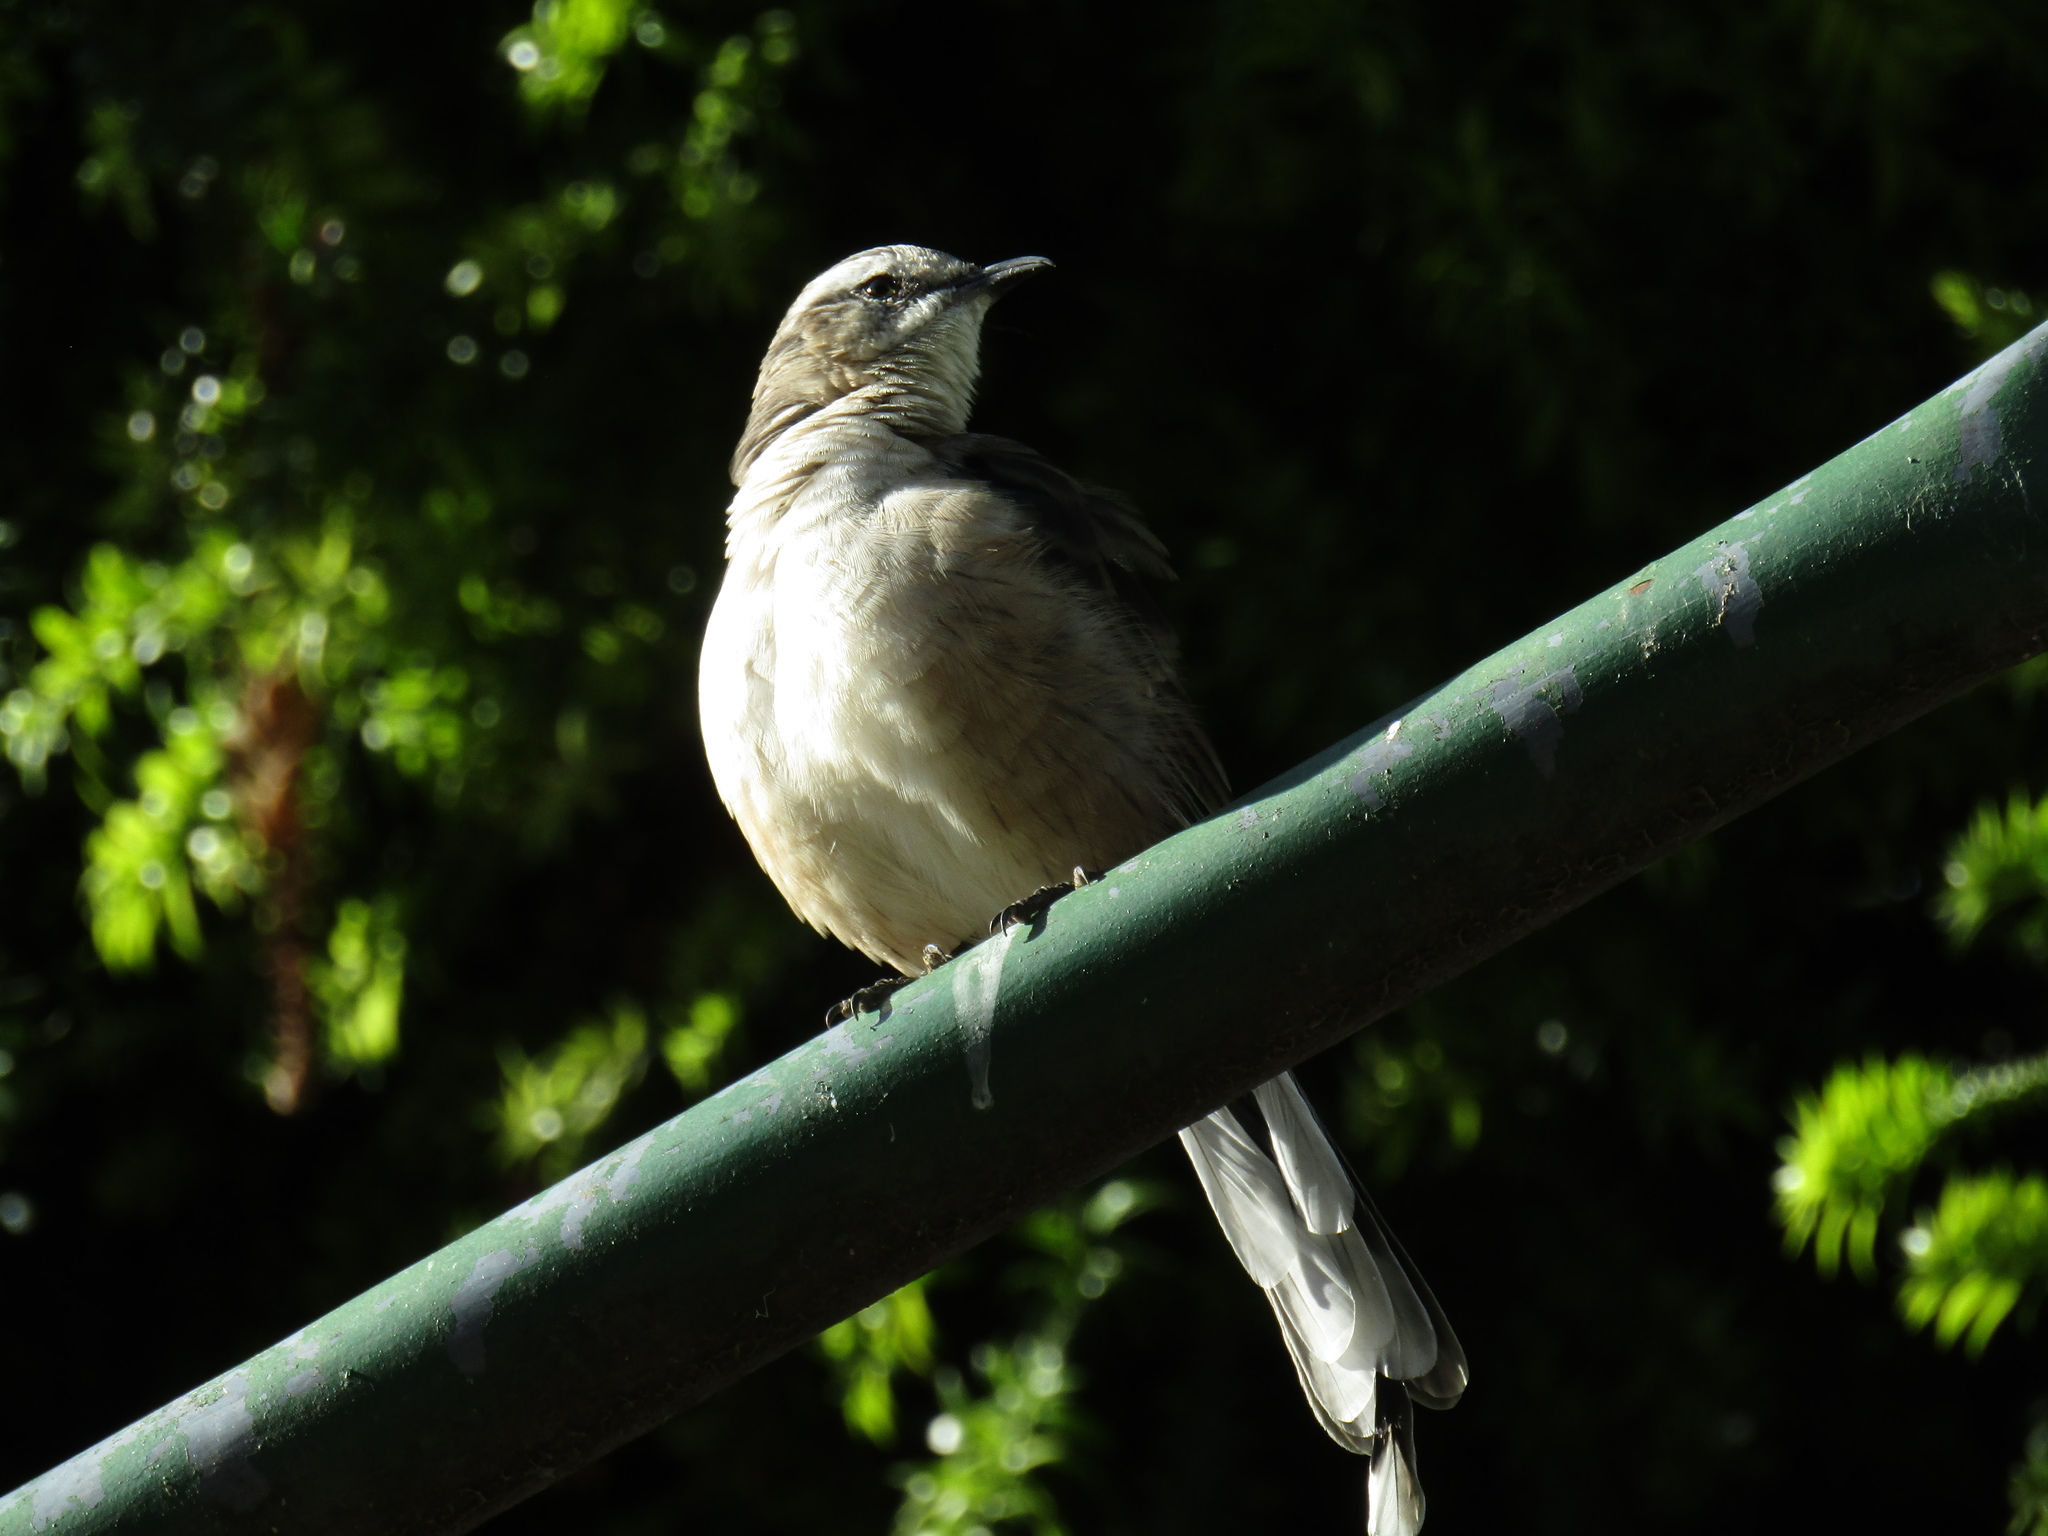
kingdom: Animalia
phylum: Chordata
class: Aves
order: Passeriformes
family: Mimidae
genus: Mimus
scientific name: Mimus saturninus
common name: Chalk-browed mockingbird
